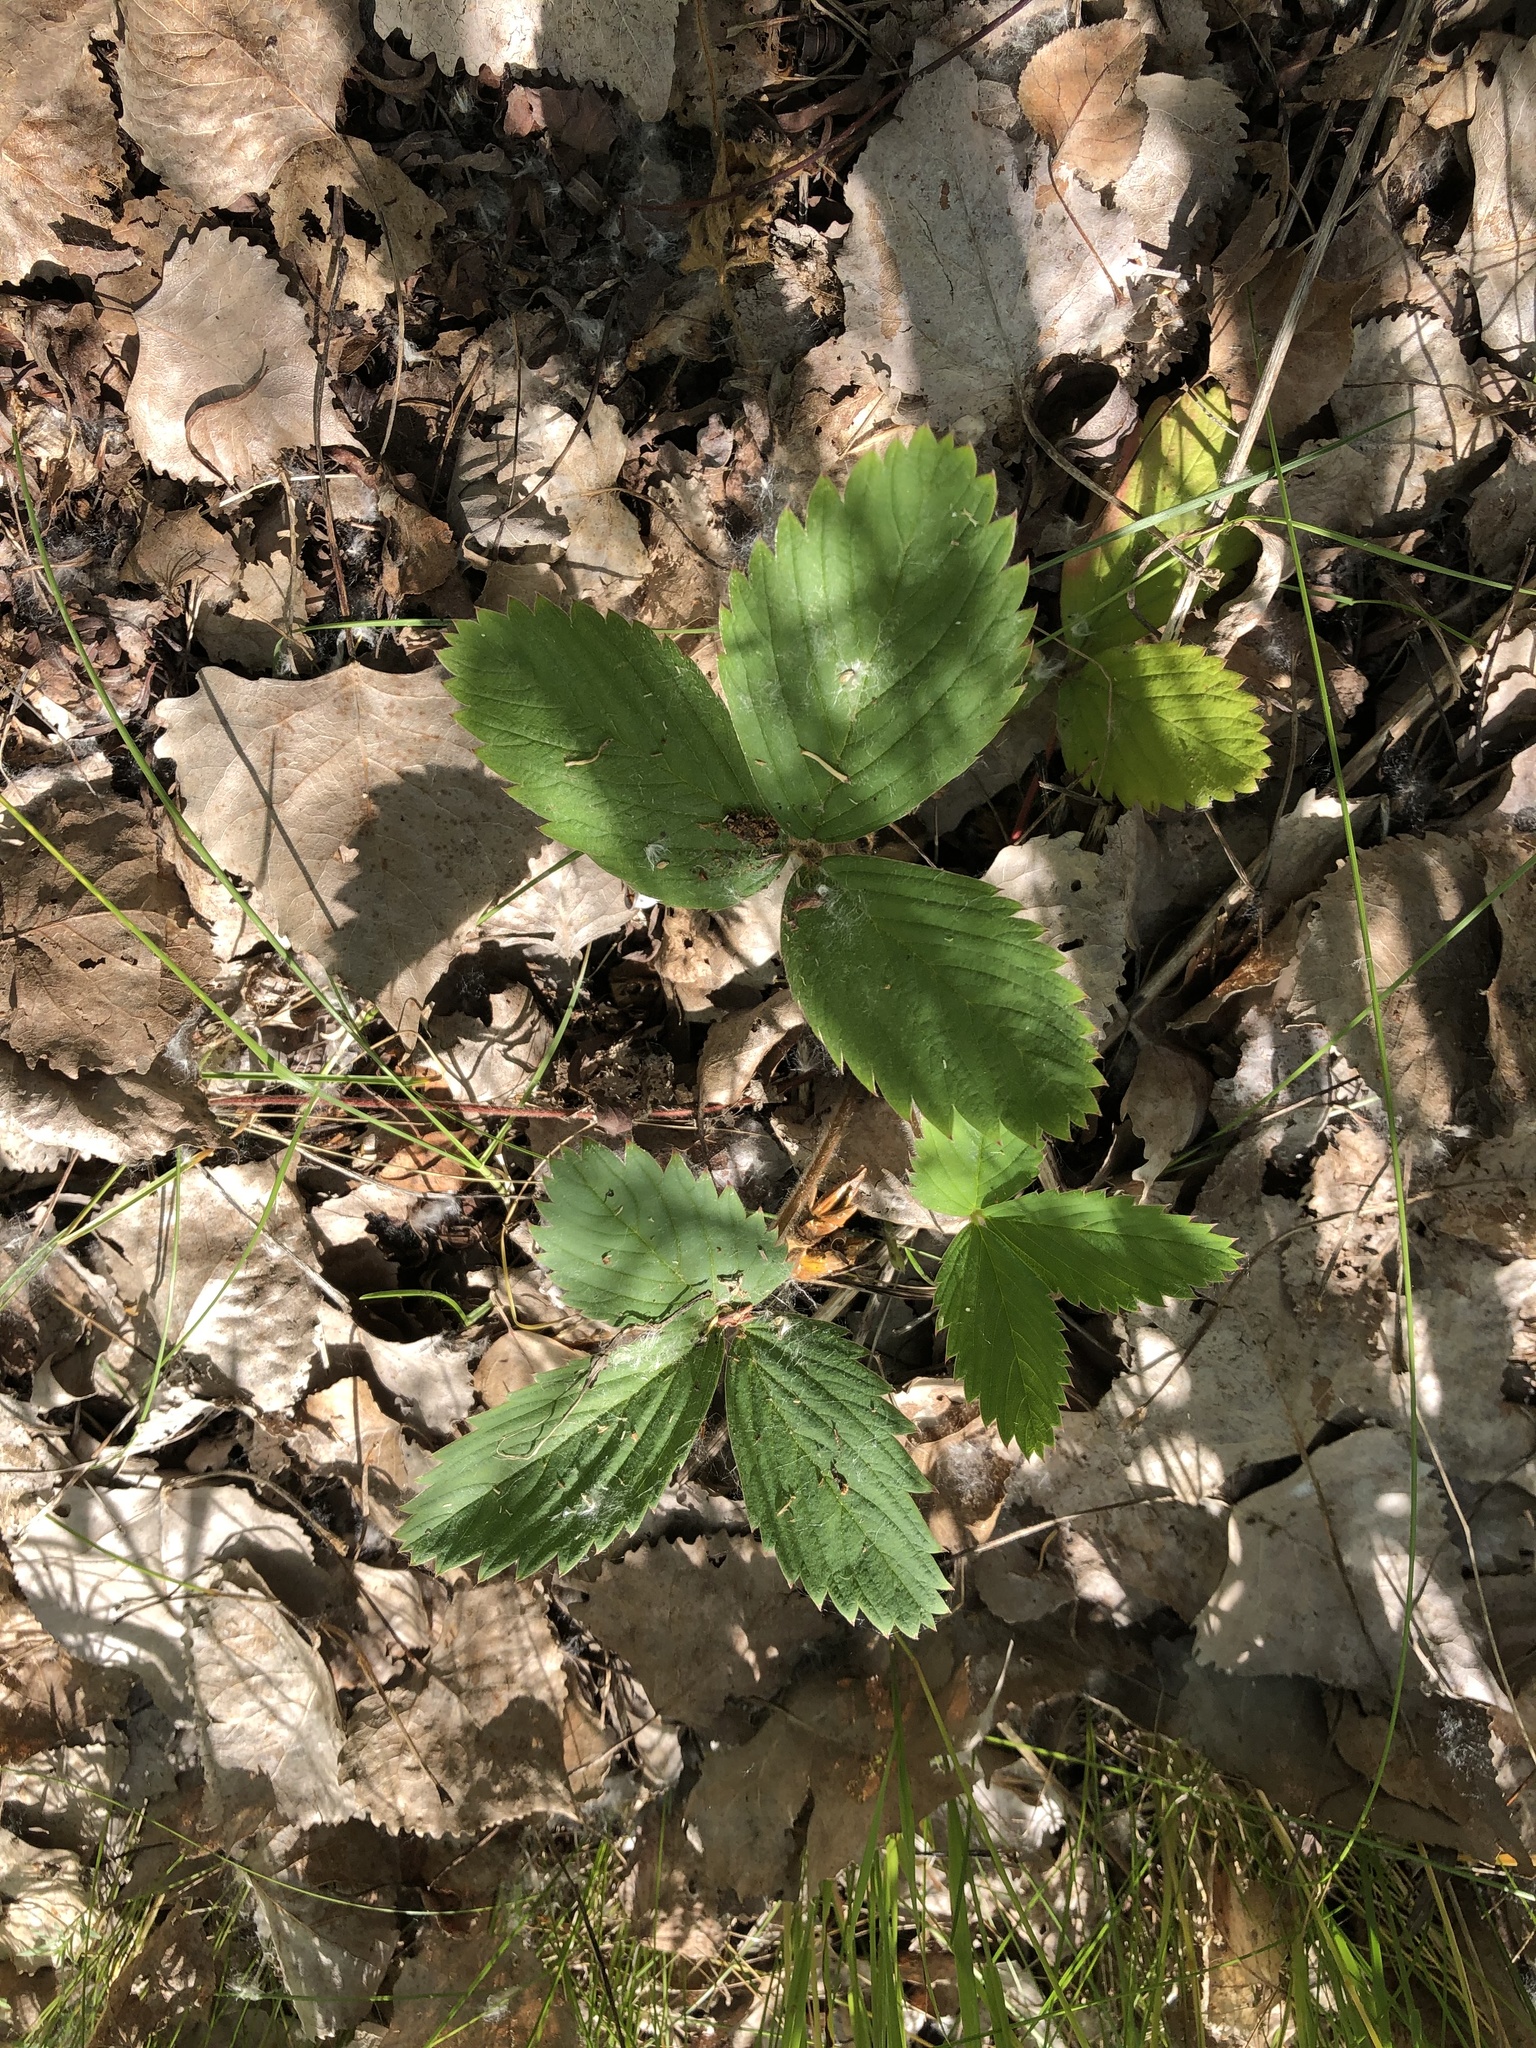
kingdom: Plantae
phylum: Tracheophyta
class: Magnoliopsida
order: Rosales
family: Rosaceae
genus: Fragaria
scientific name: Fragaria virginiana
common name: Thickleaved wild strawberry
